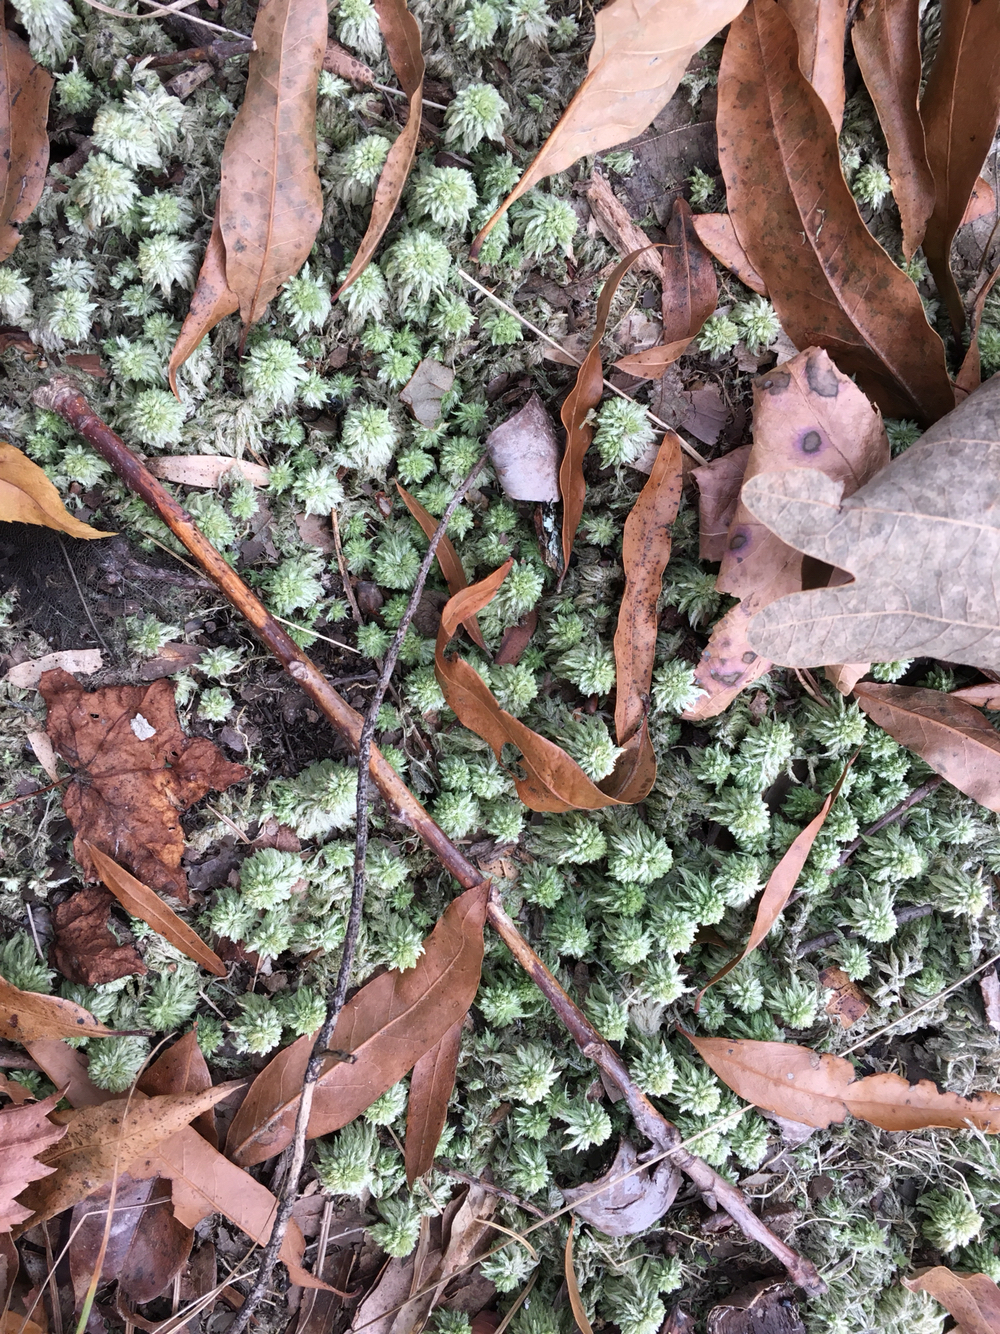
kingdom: Plantae
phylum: Bryophyta
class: Sphagnopsida
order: Sphagnales
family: Sphagnaceae
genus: Sphagnum
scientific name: Sphagnum lescurii
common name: Lesquereux's peat moss
